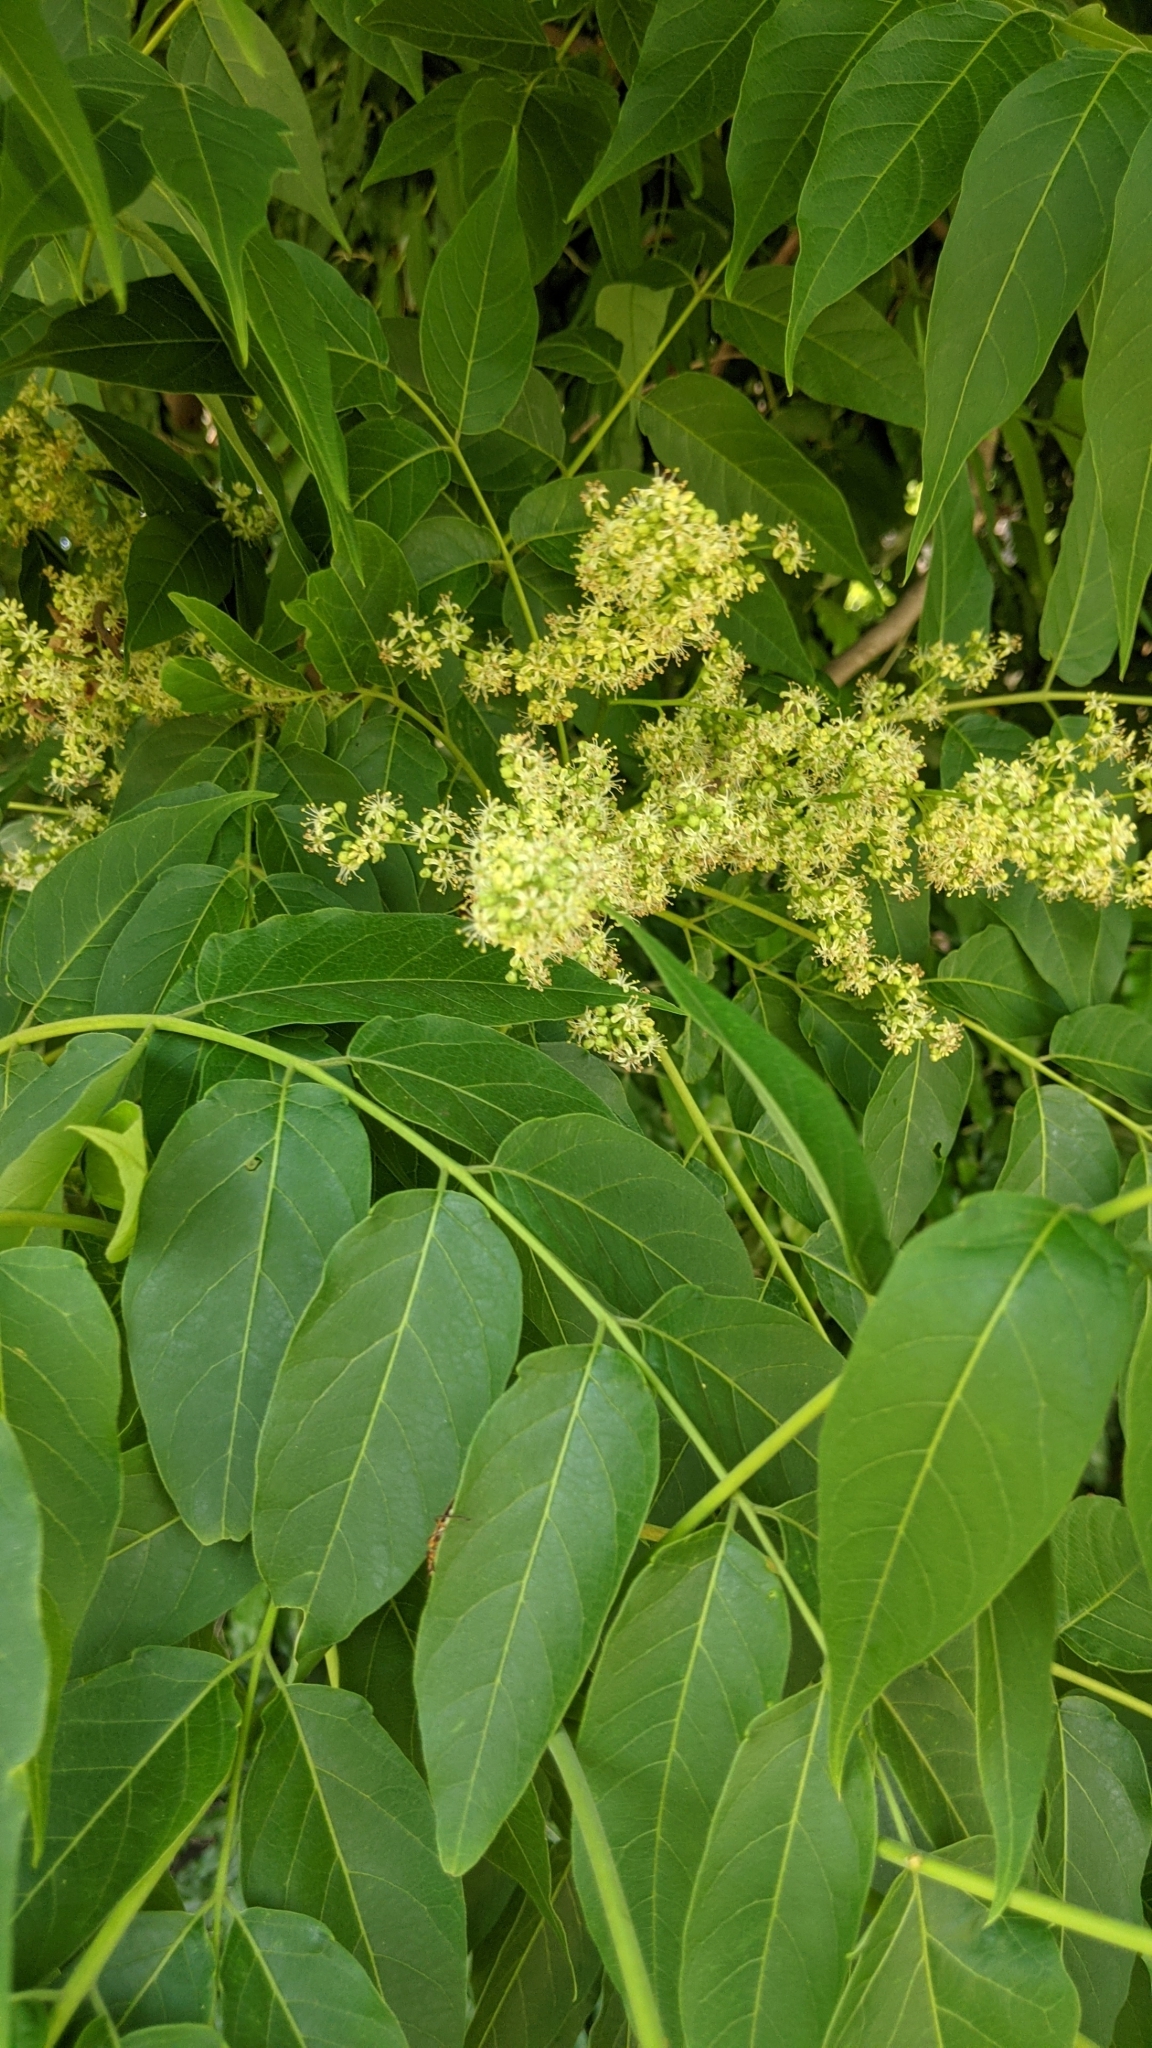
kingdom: Plantae
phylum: Tracheophyta
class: Magnoliopsida
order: Sapindales
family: Simaroubaceae
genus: Ailanthus
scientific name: Ailanthus altissima
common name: Tree-of-heaven
